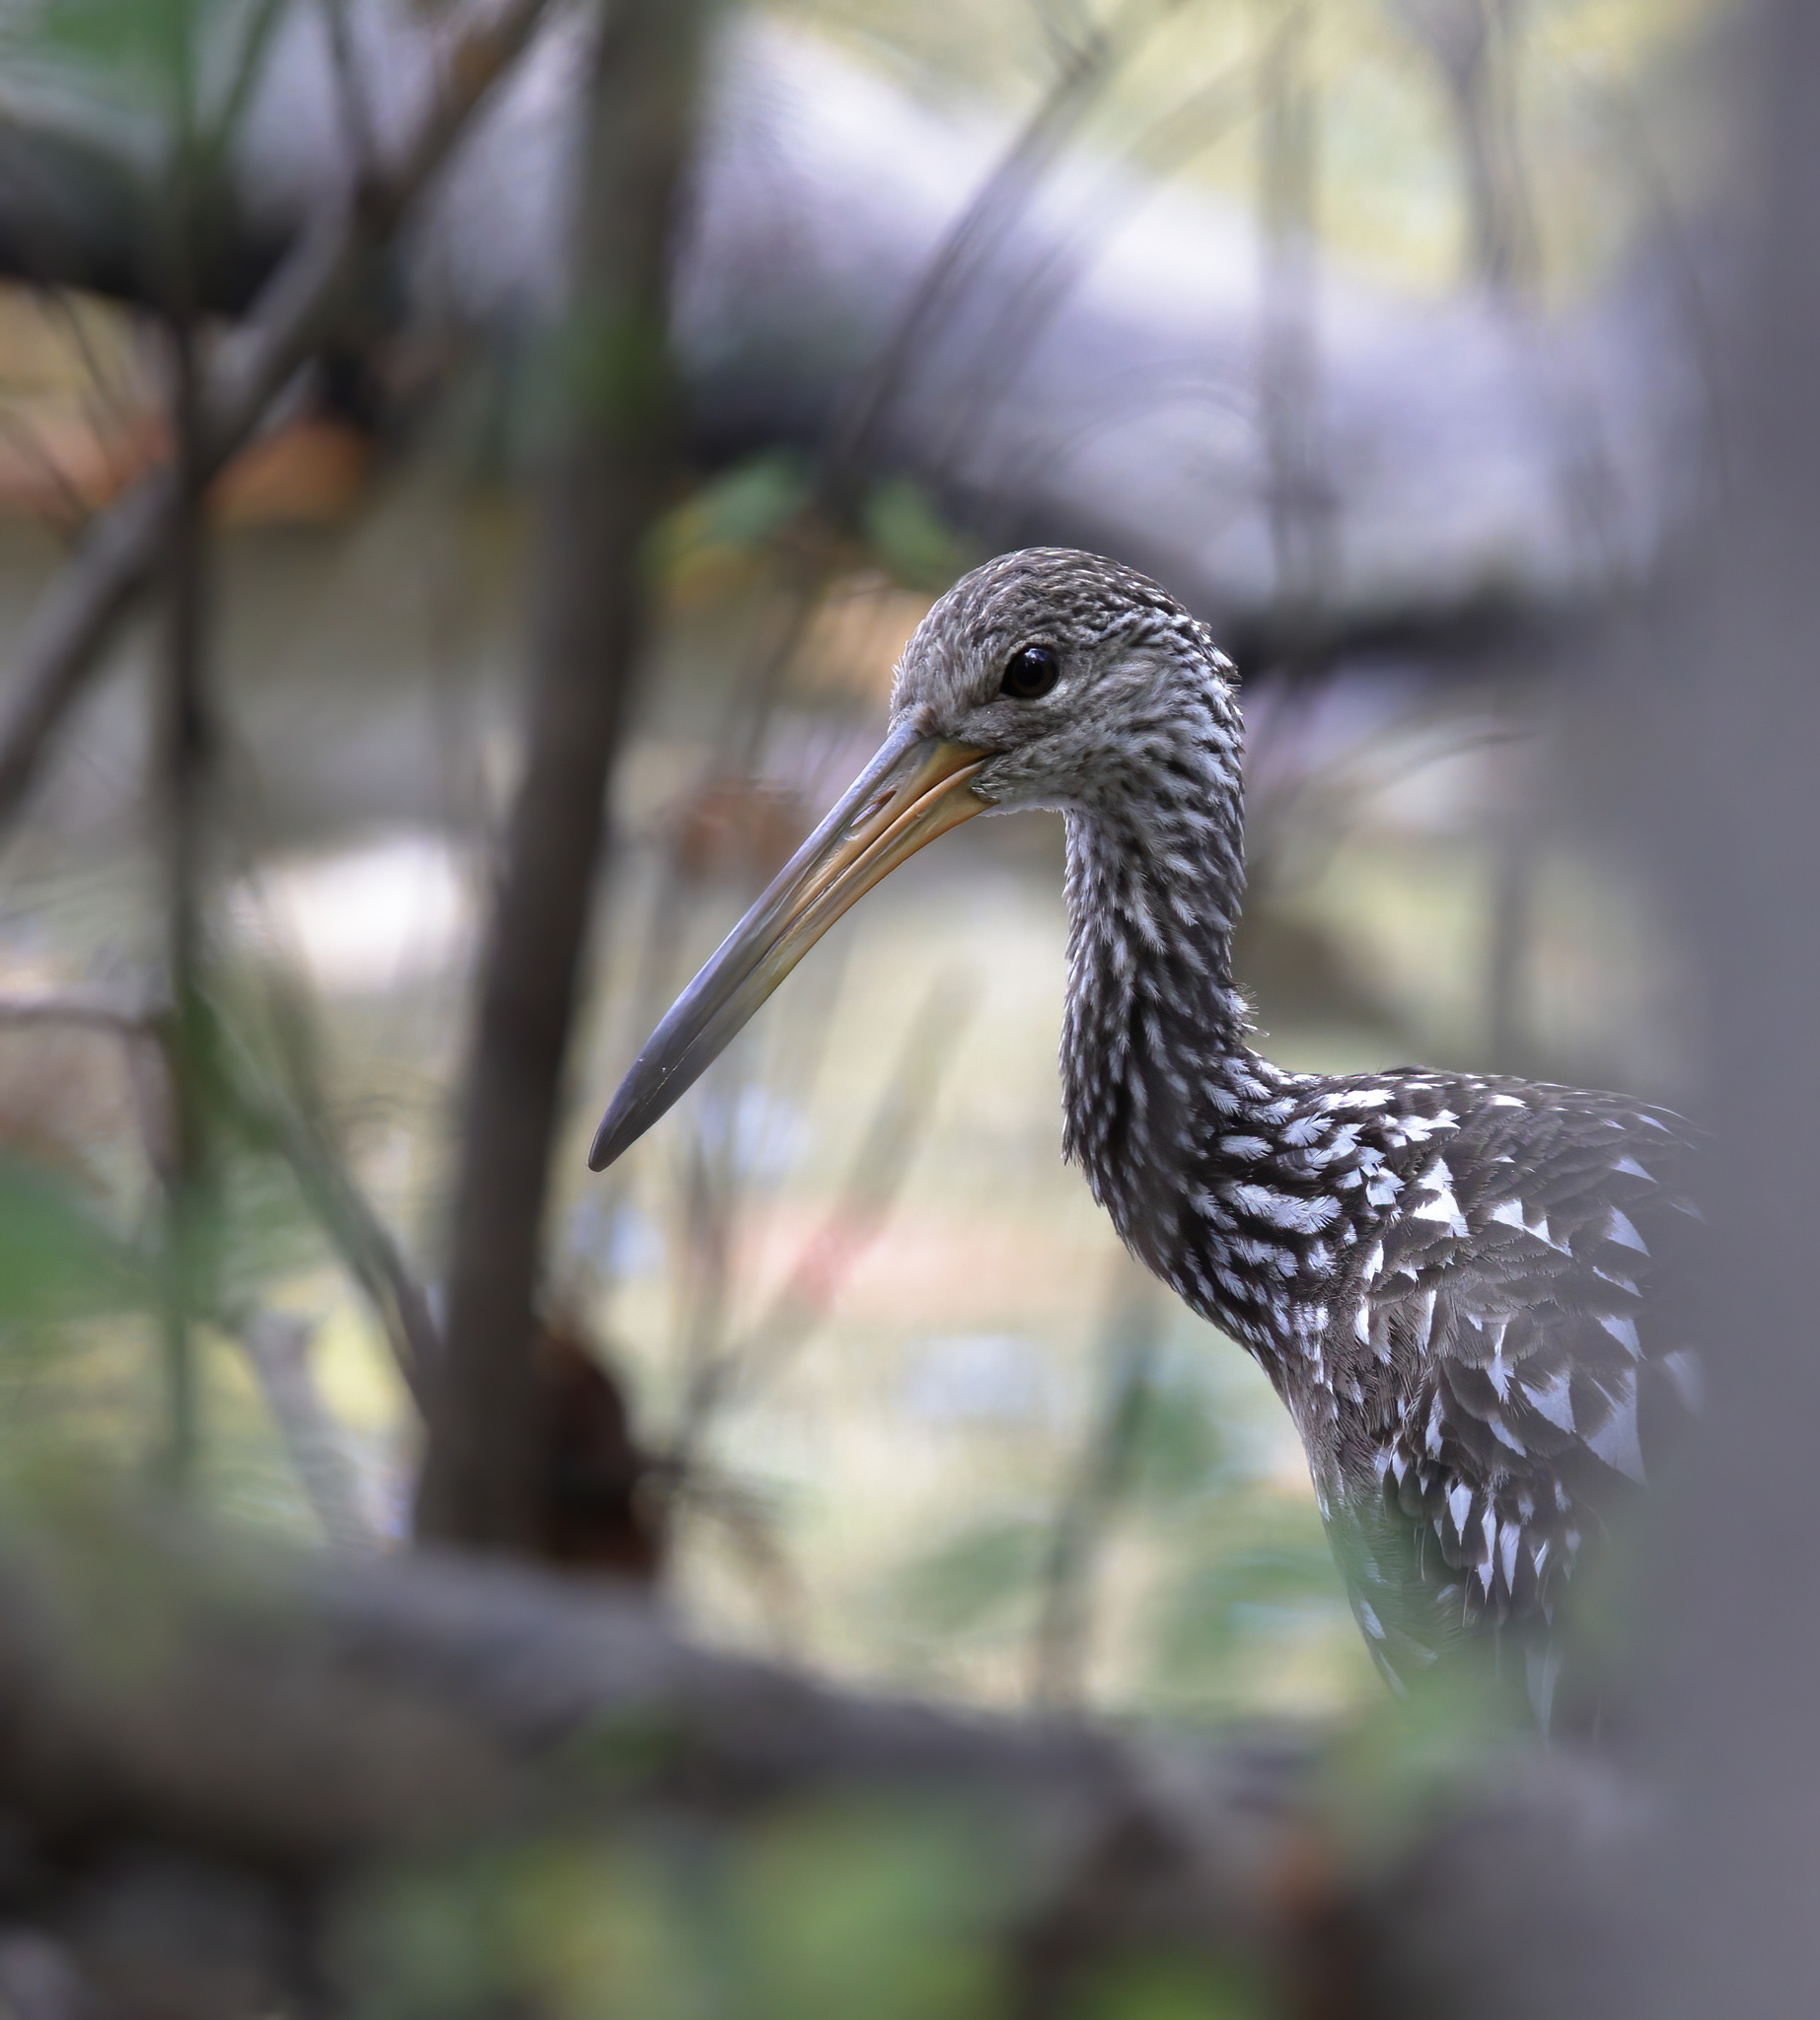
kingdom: Animalia
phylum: Chordata
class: Aves
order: Gruiformes
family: Aramidae
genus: Aramus
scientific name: Aramus guarauna
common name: Limpkin
